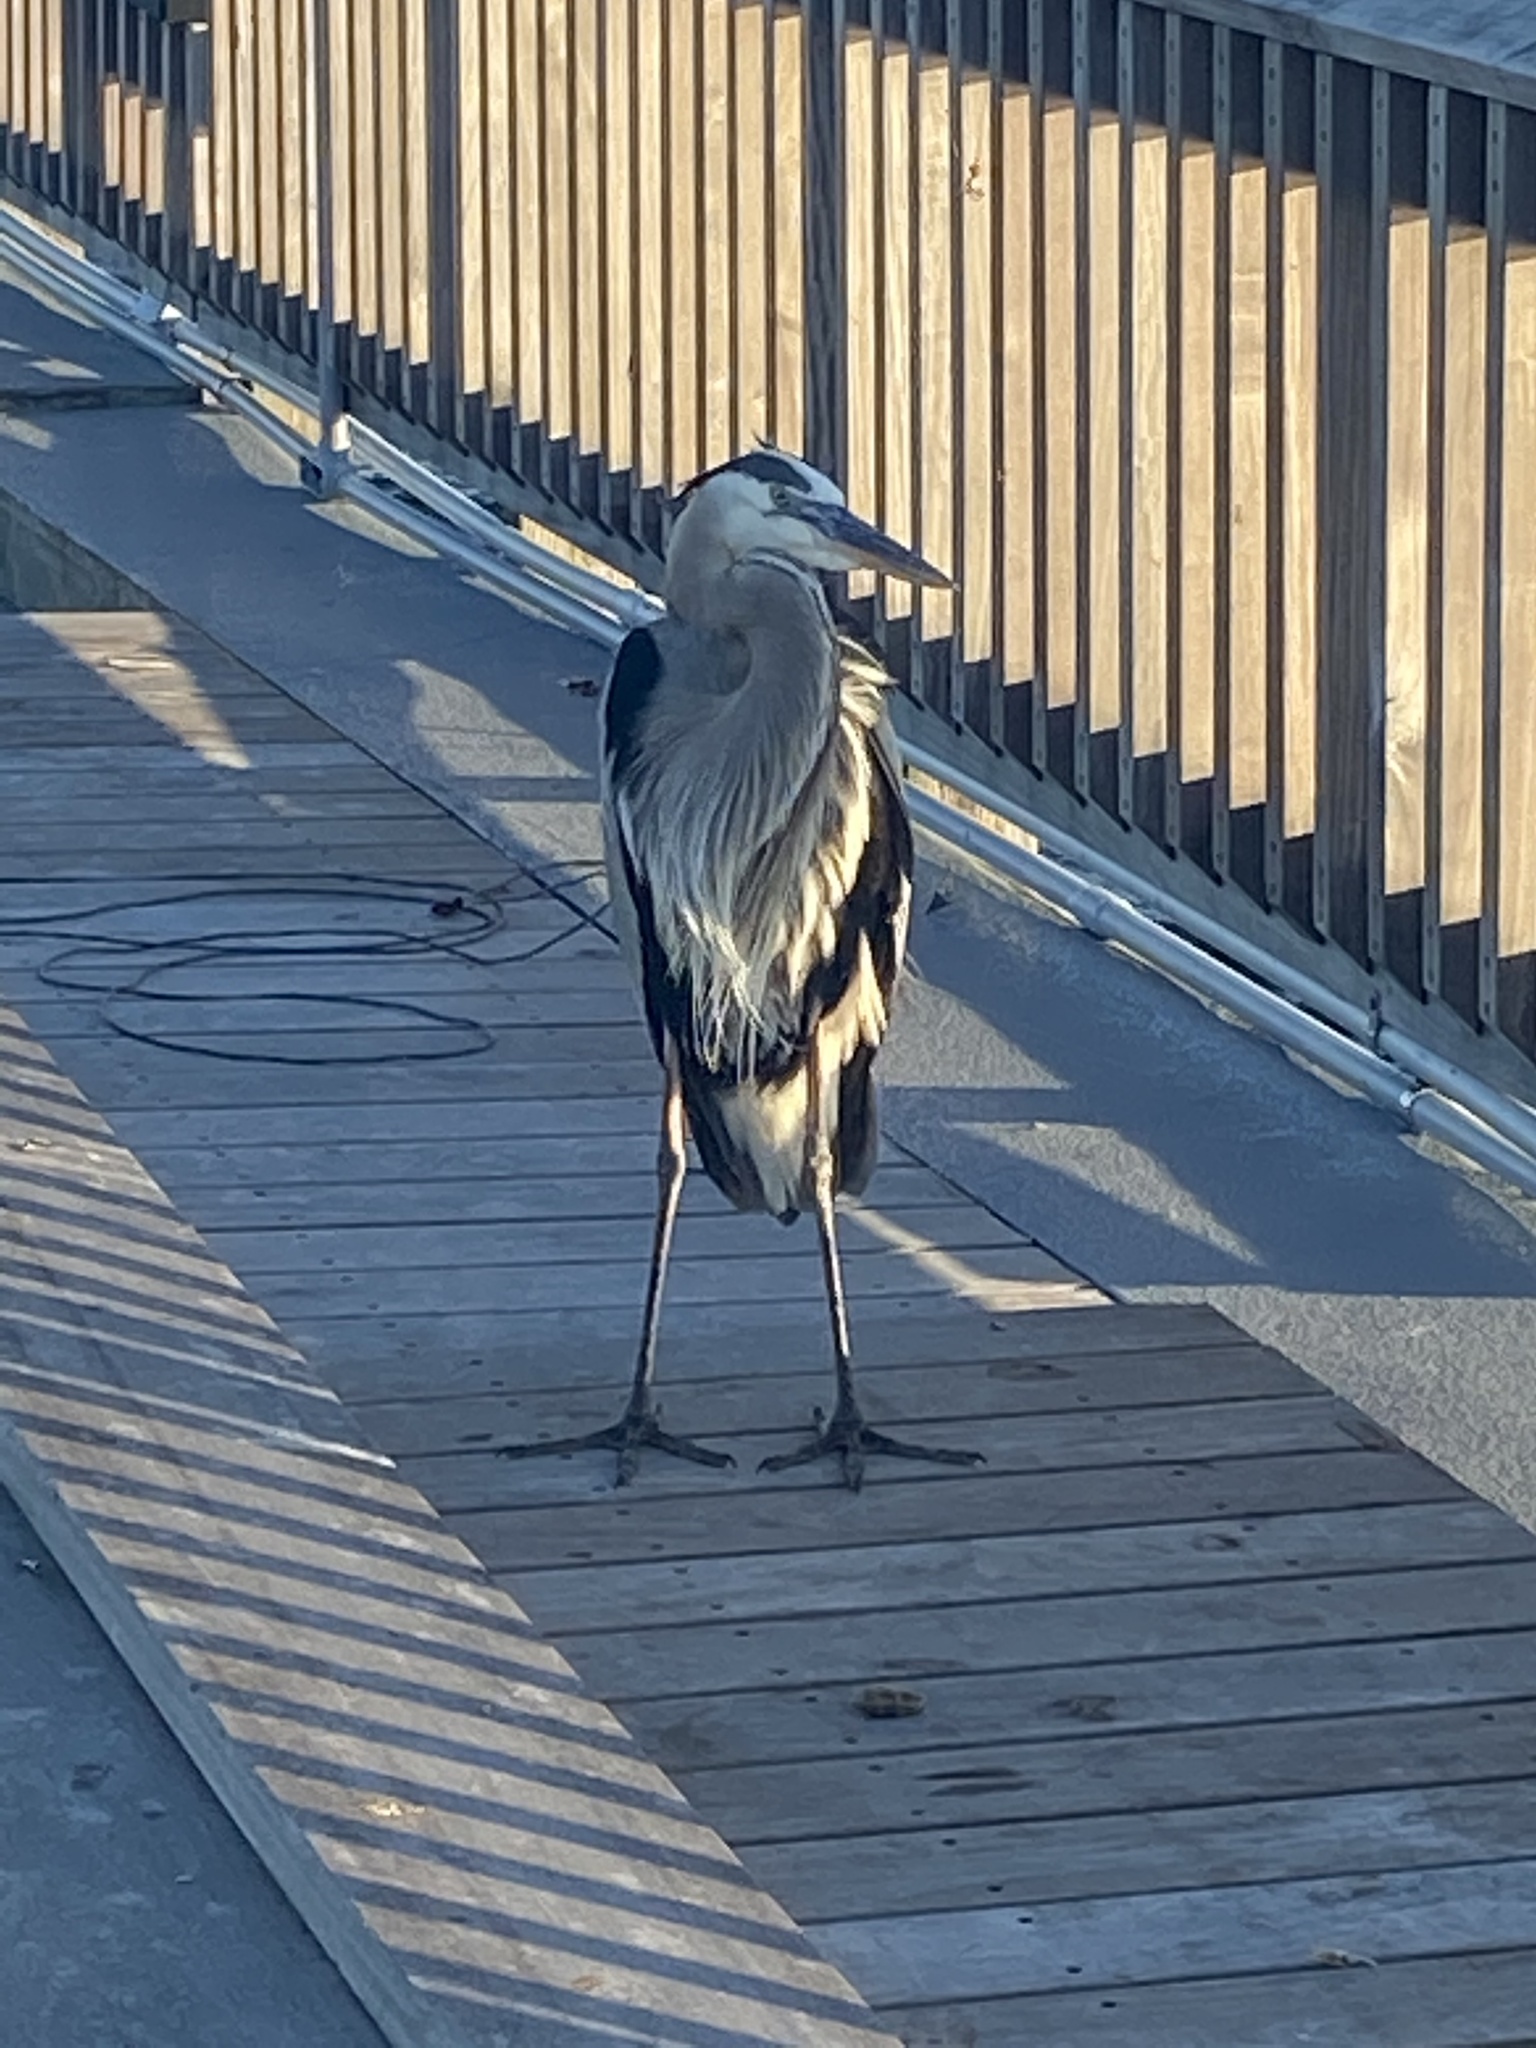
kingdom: Animalia
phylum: Chordata
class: Aves
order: Pelecaniformes
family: Ardeidae
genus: Ardea
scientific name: Ardea herodias
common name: Great blue heron
